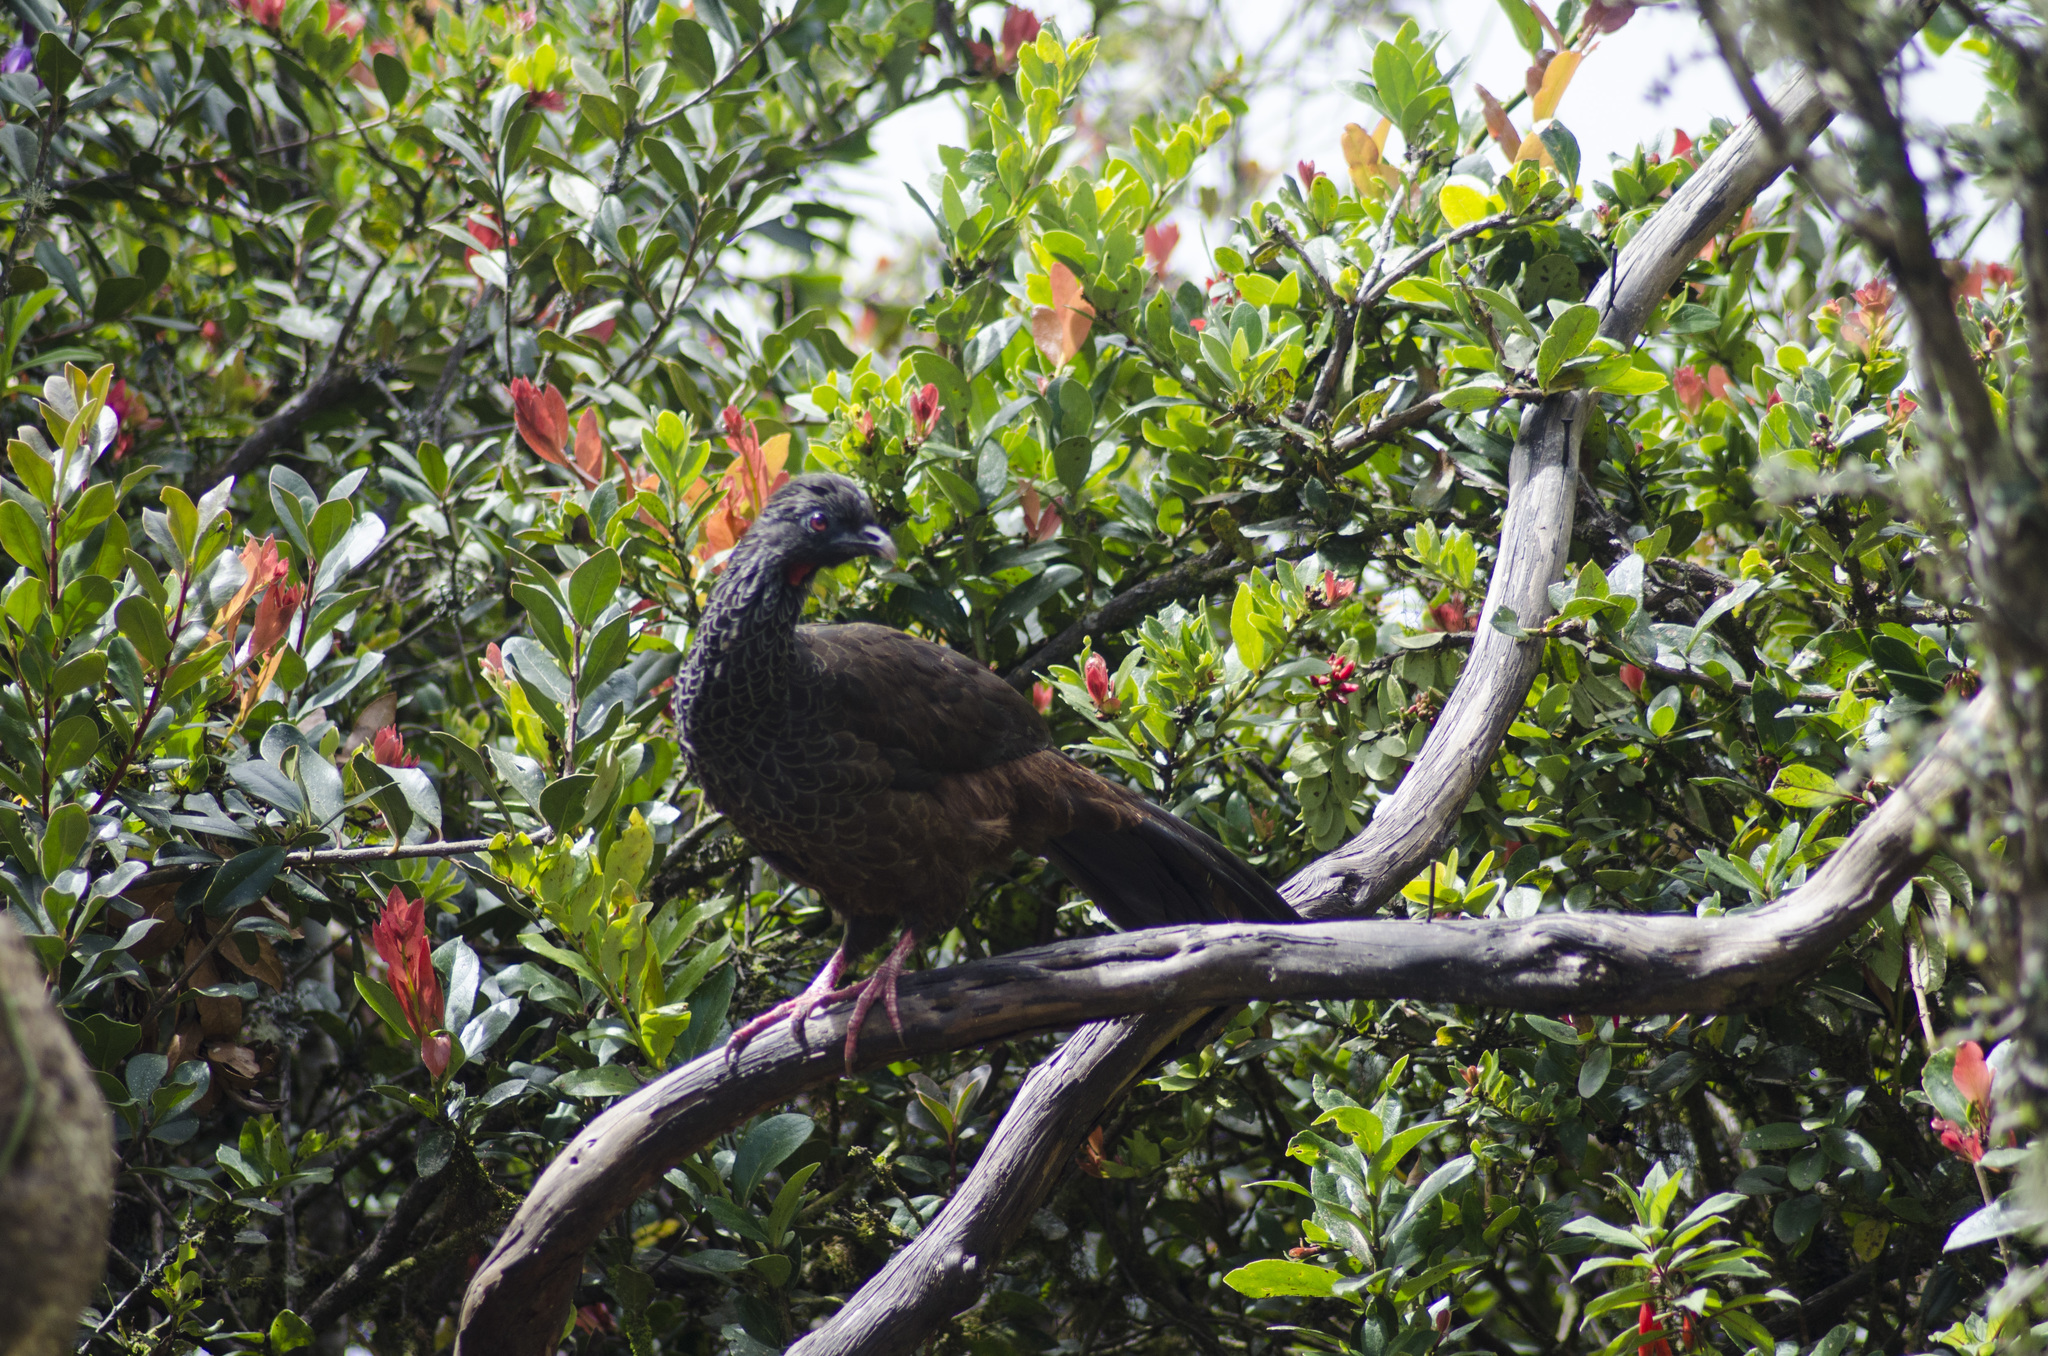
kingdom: Animalia
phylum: Chordata
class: Aves
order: Galliformes
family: Cracidae
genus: Penelope
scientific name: Penelope montagnii
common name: Andean guan
